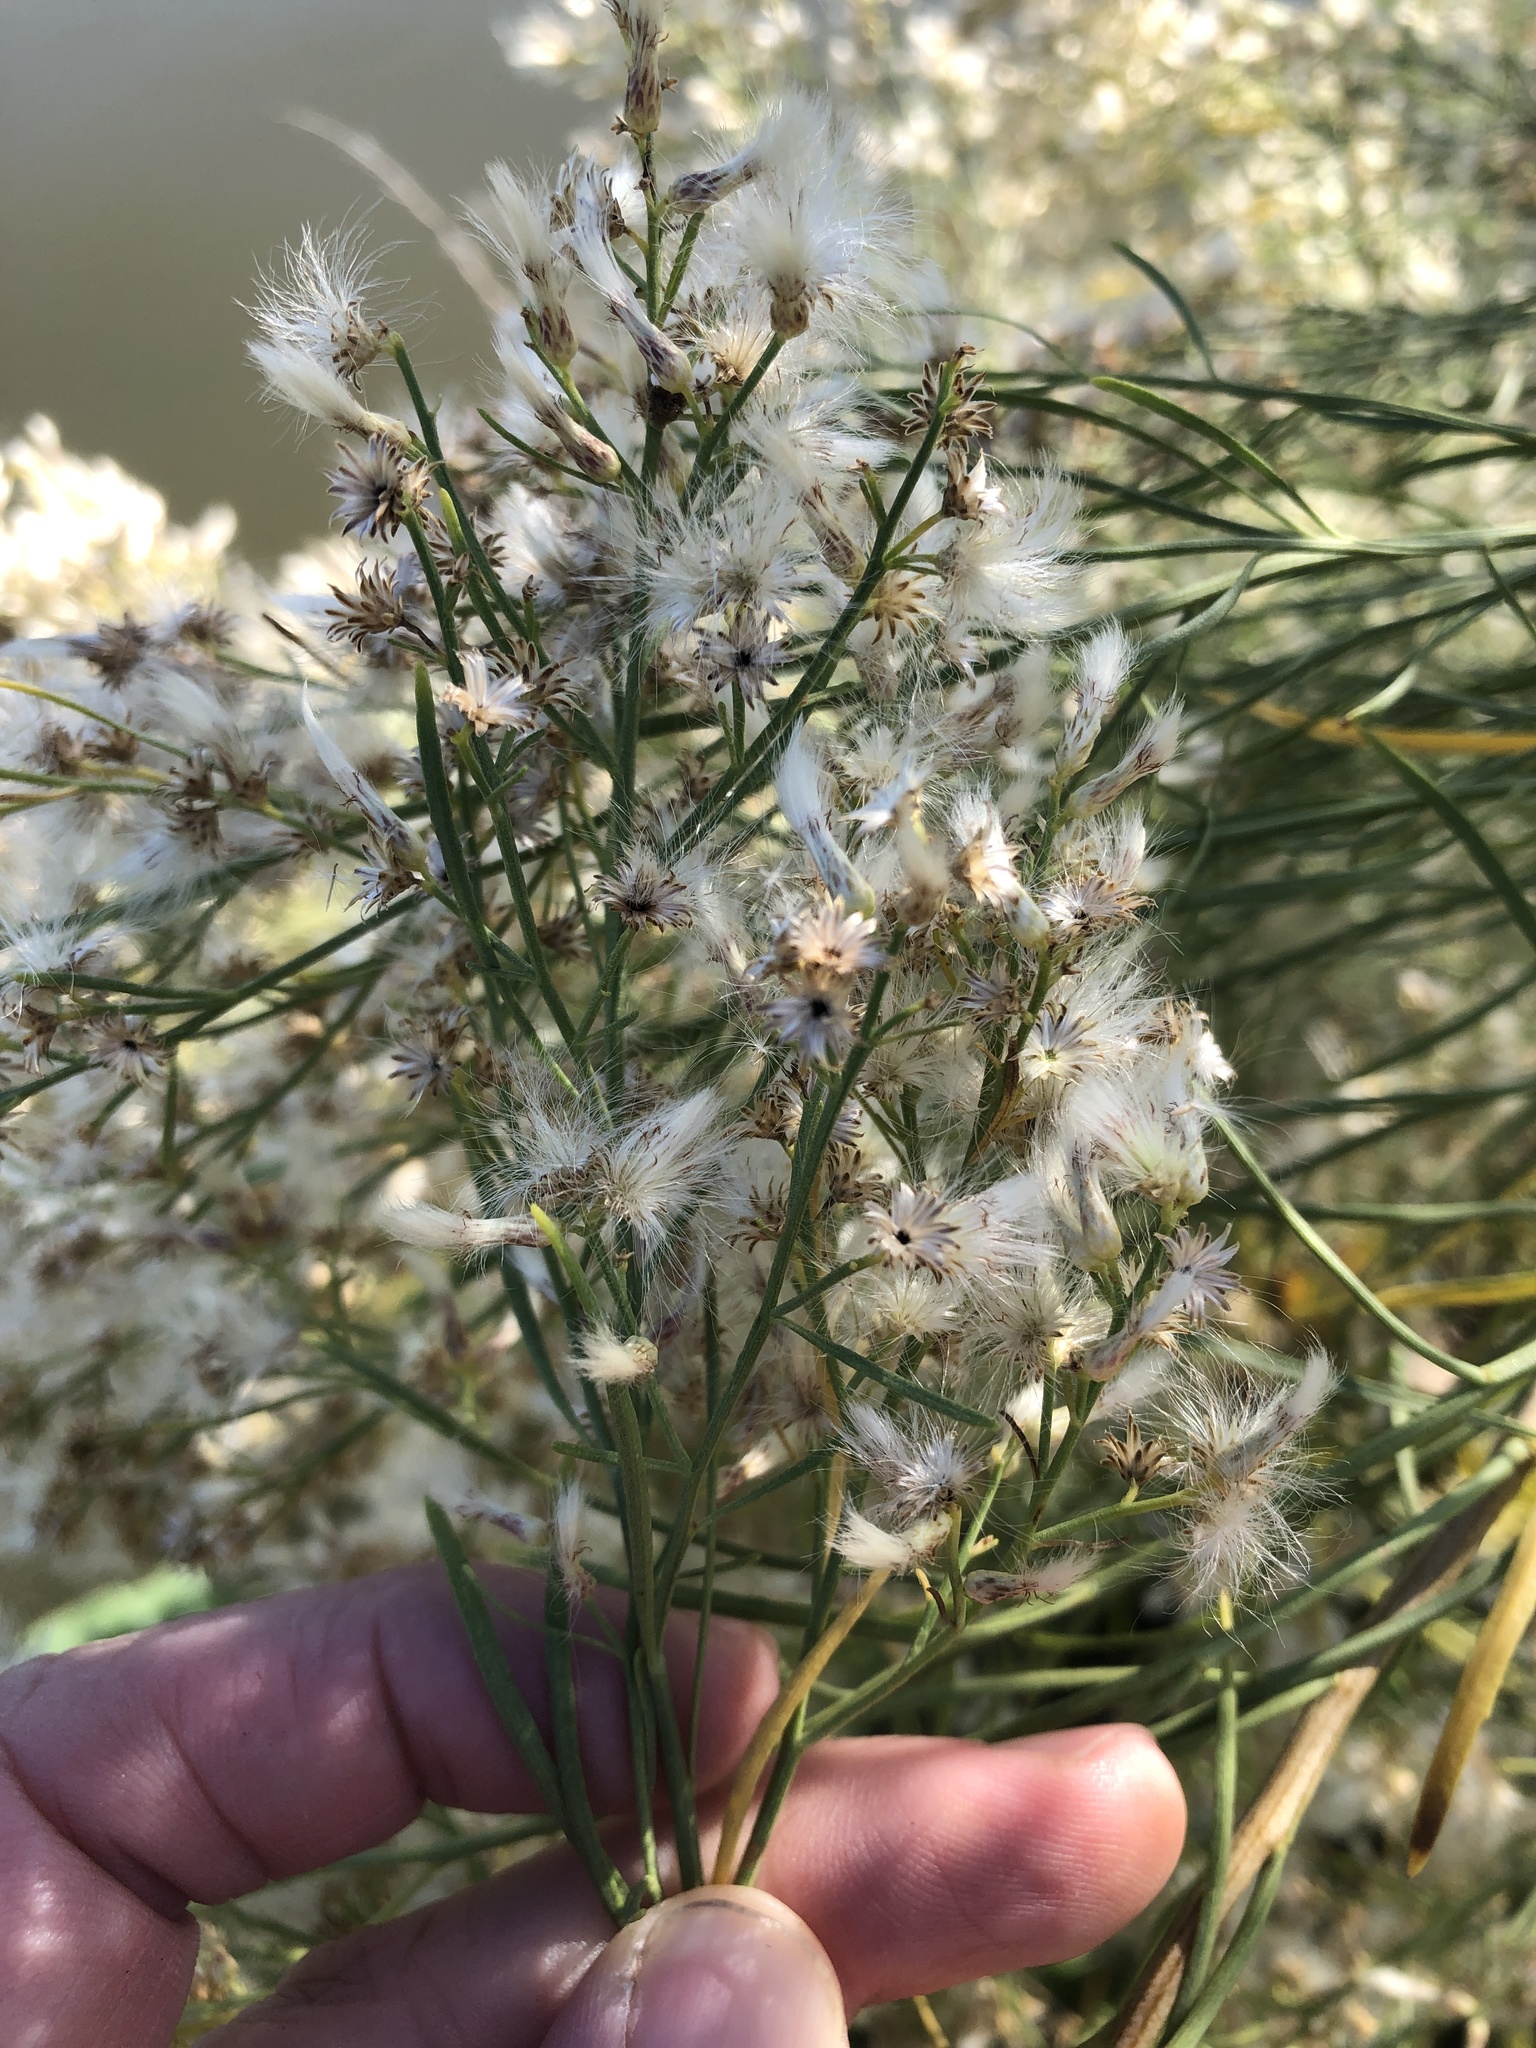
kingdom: Plantae
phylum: Tracheophyta
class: Magnoliopsida
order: Asterales
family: Asteraceae
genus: Baccharis
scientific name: Baccharis neglecta
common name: Roosevelt-weed
